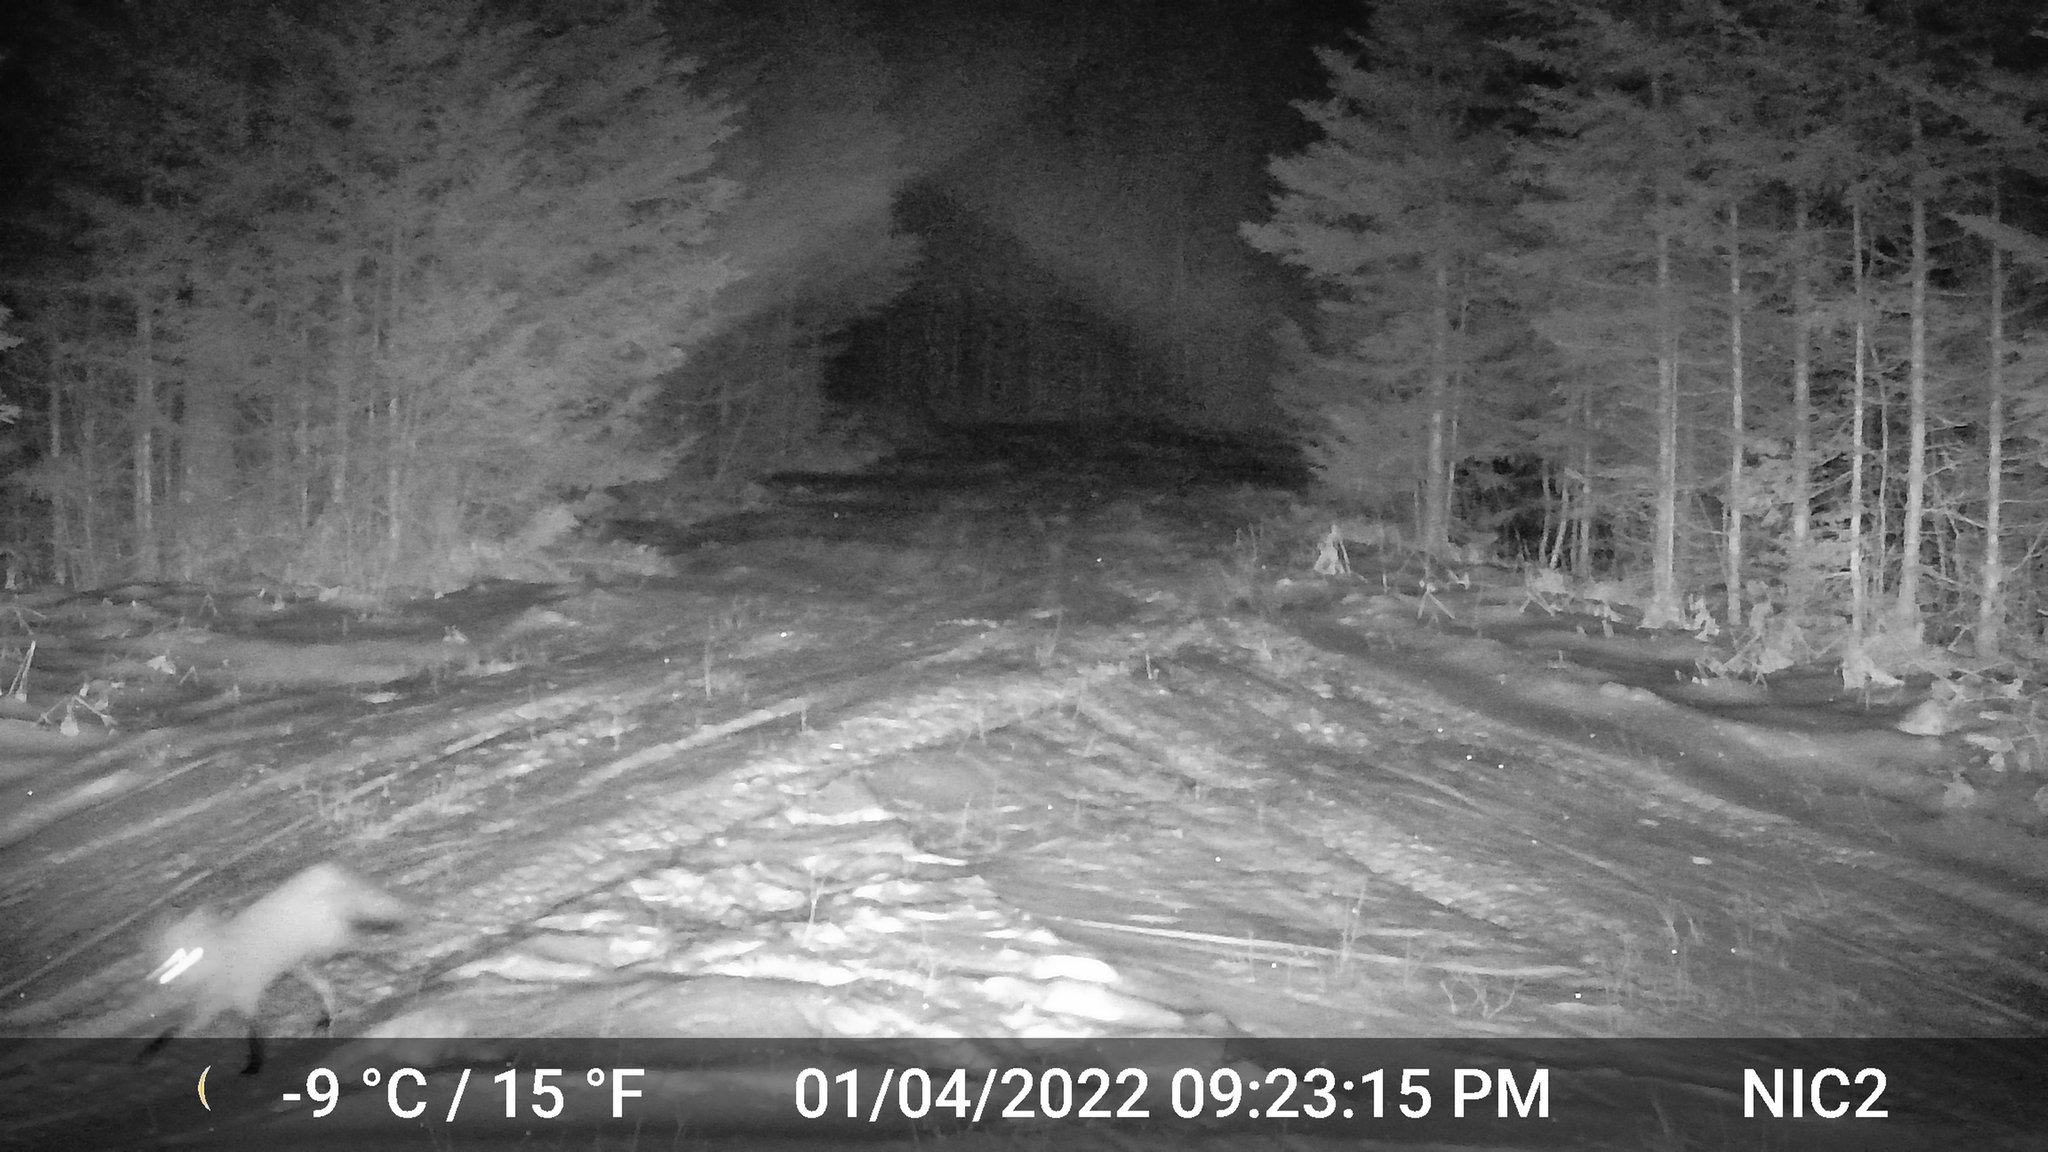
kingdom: Animalia
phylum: Chordata
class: Mammalia
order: Carnivora
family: Canidae
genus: Vulpes
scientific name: Vulpes vulpes
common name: Red fox
